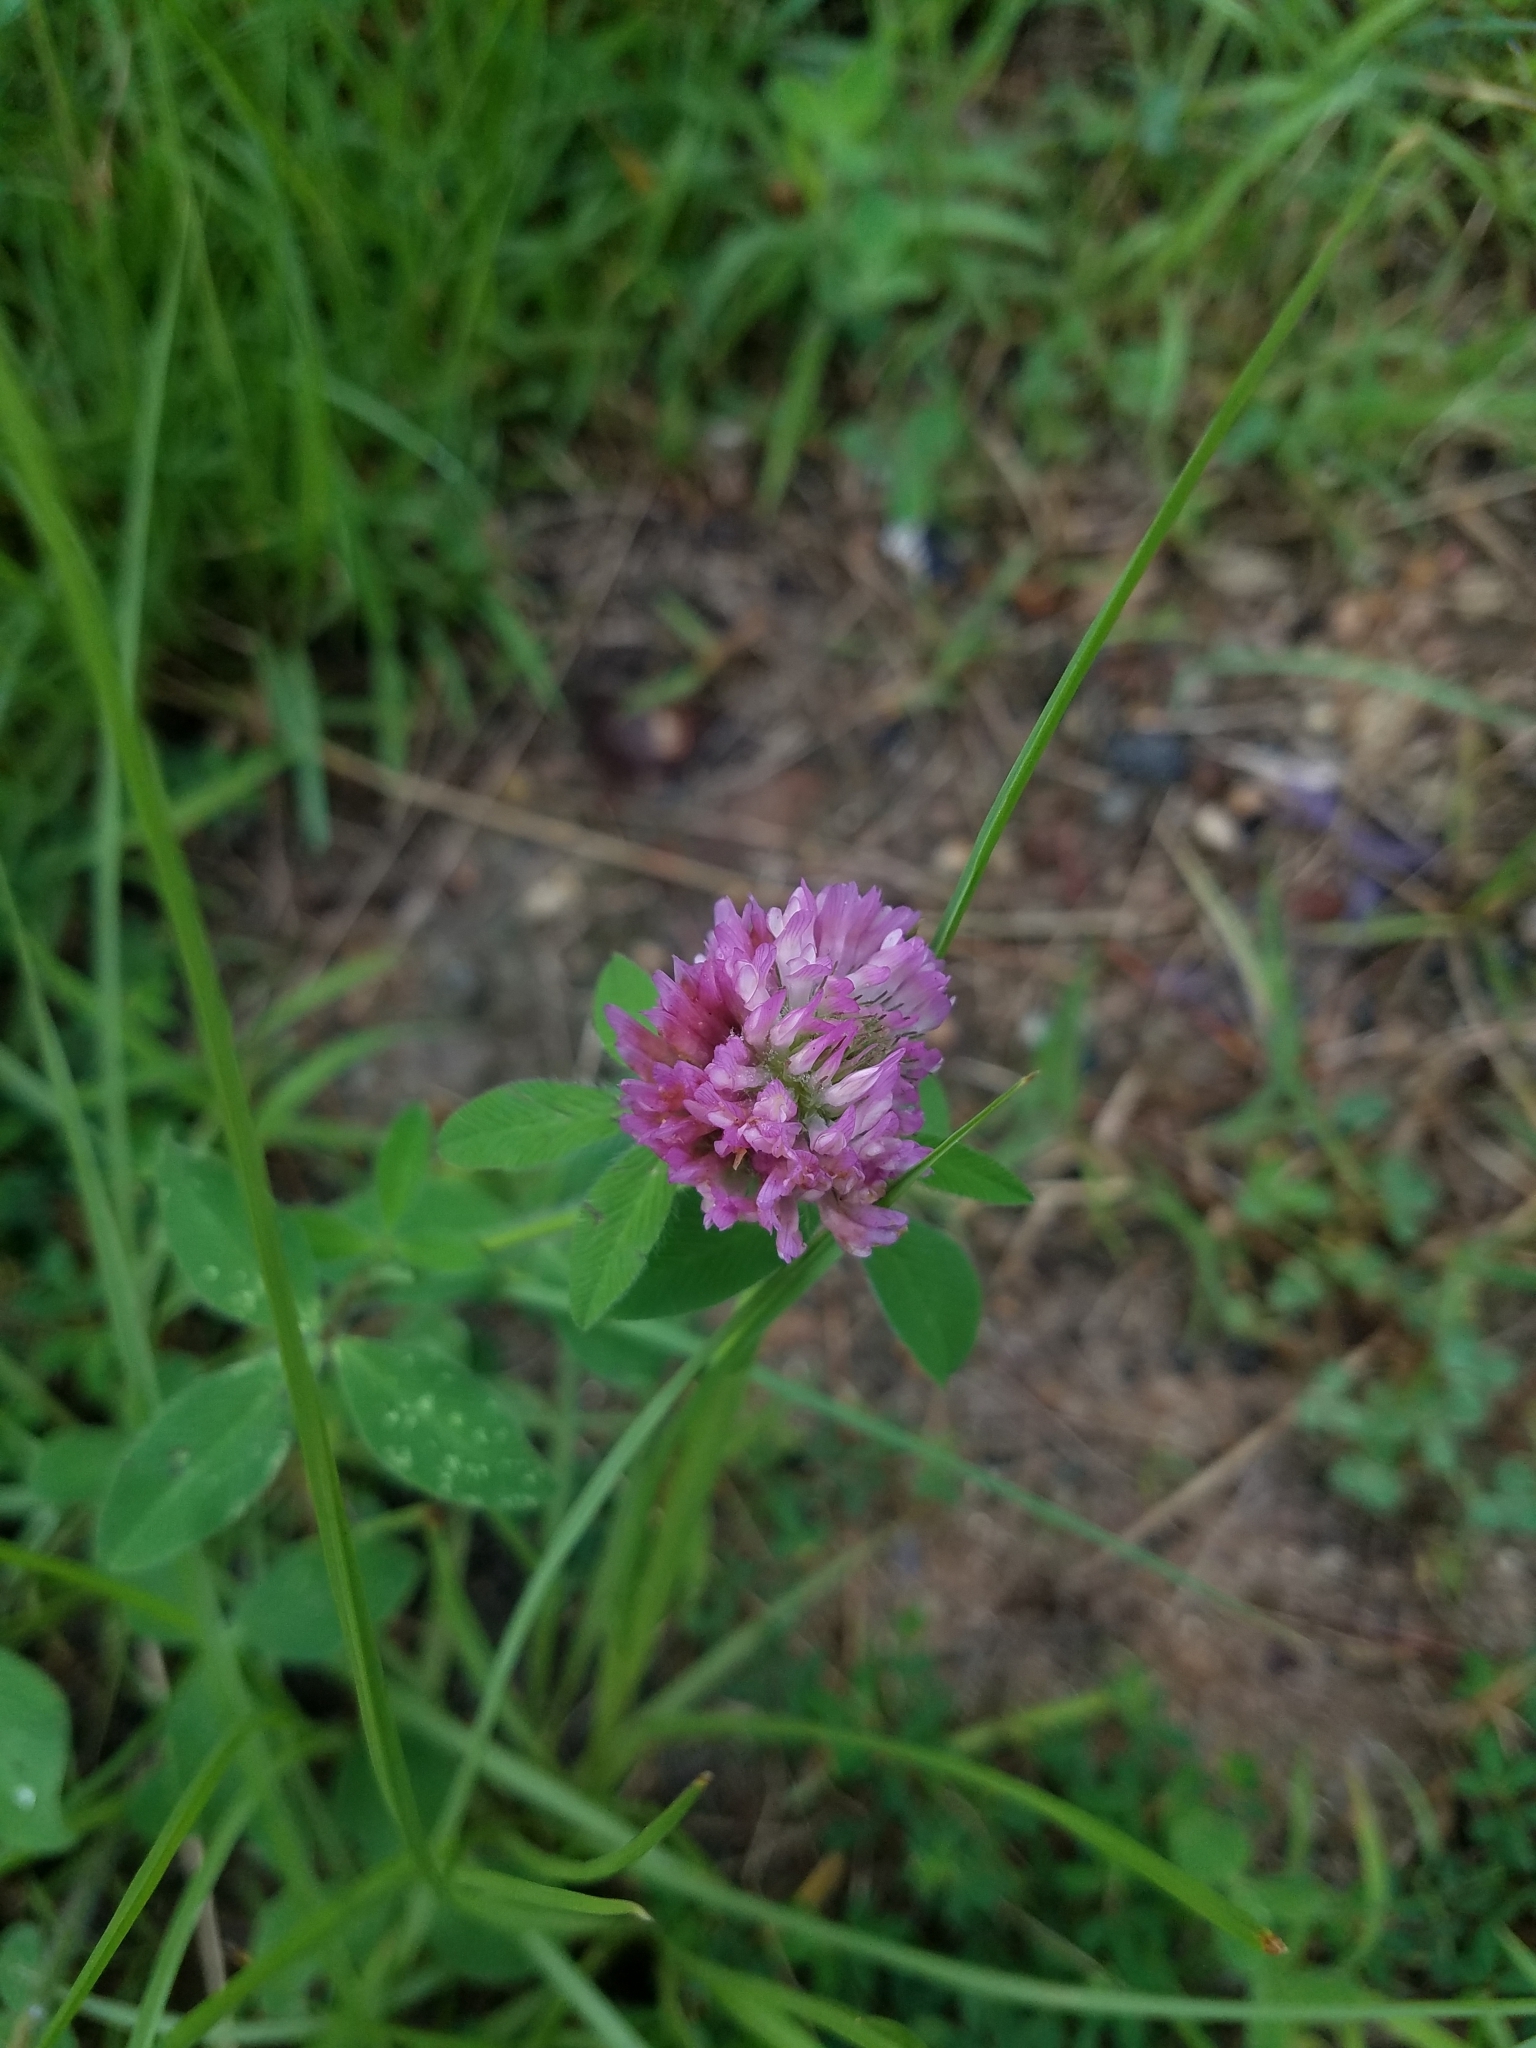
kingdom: Plantae
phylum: Tracheophyta
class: Magnoliopsida
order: Fabales
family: Fabaceae
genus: Trifolium
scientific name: Trifolium pratense
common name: Red clover
